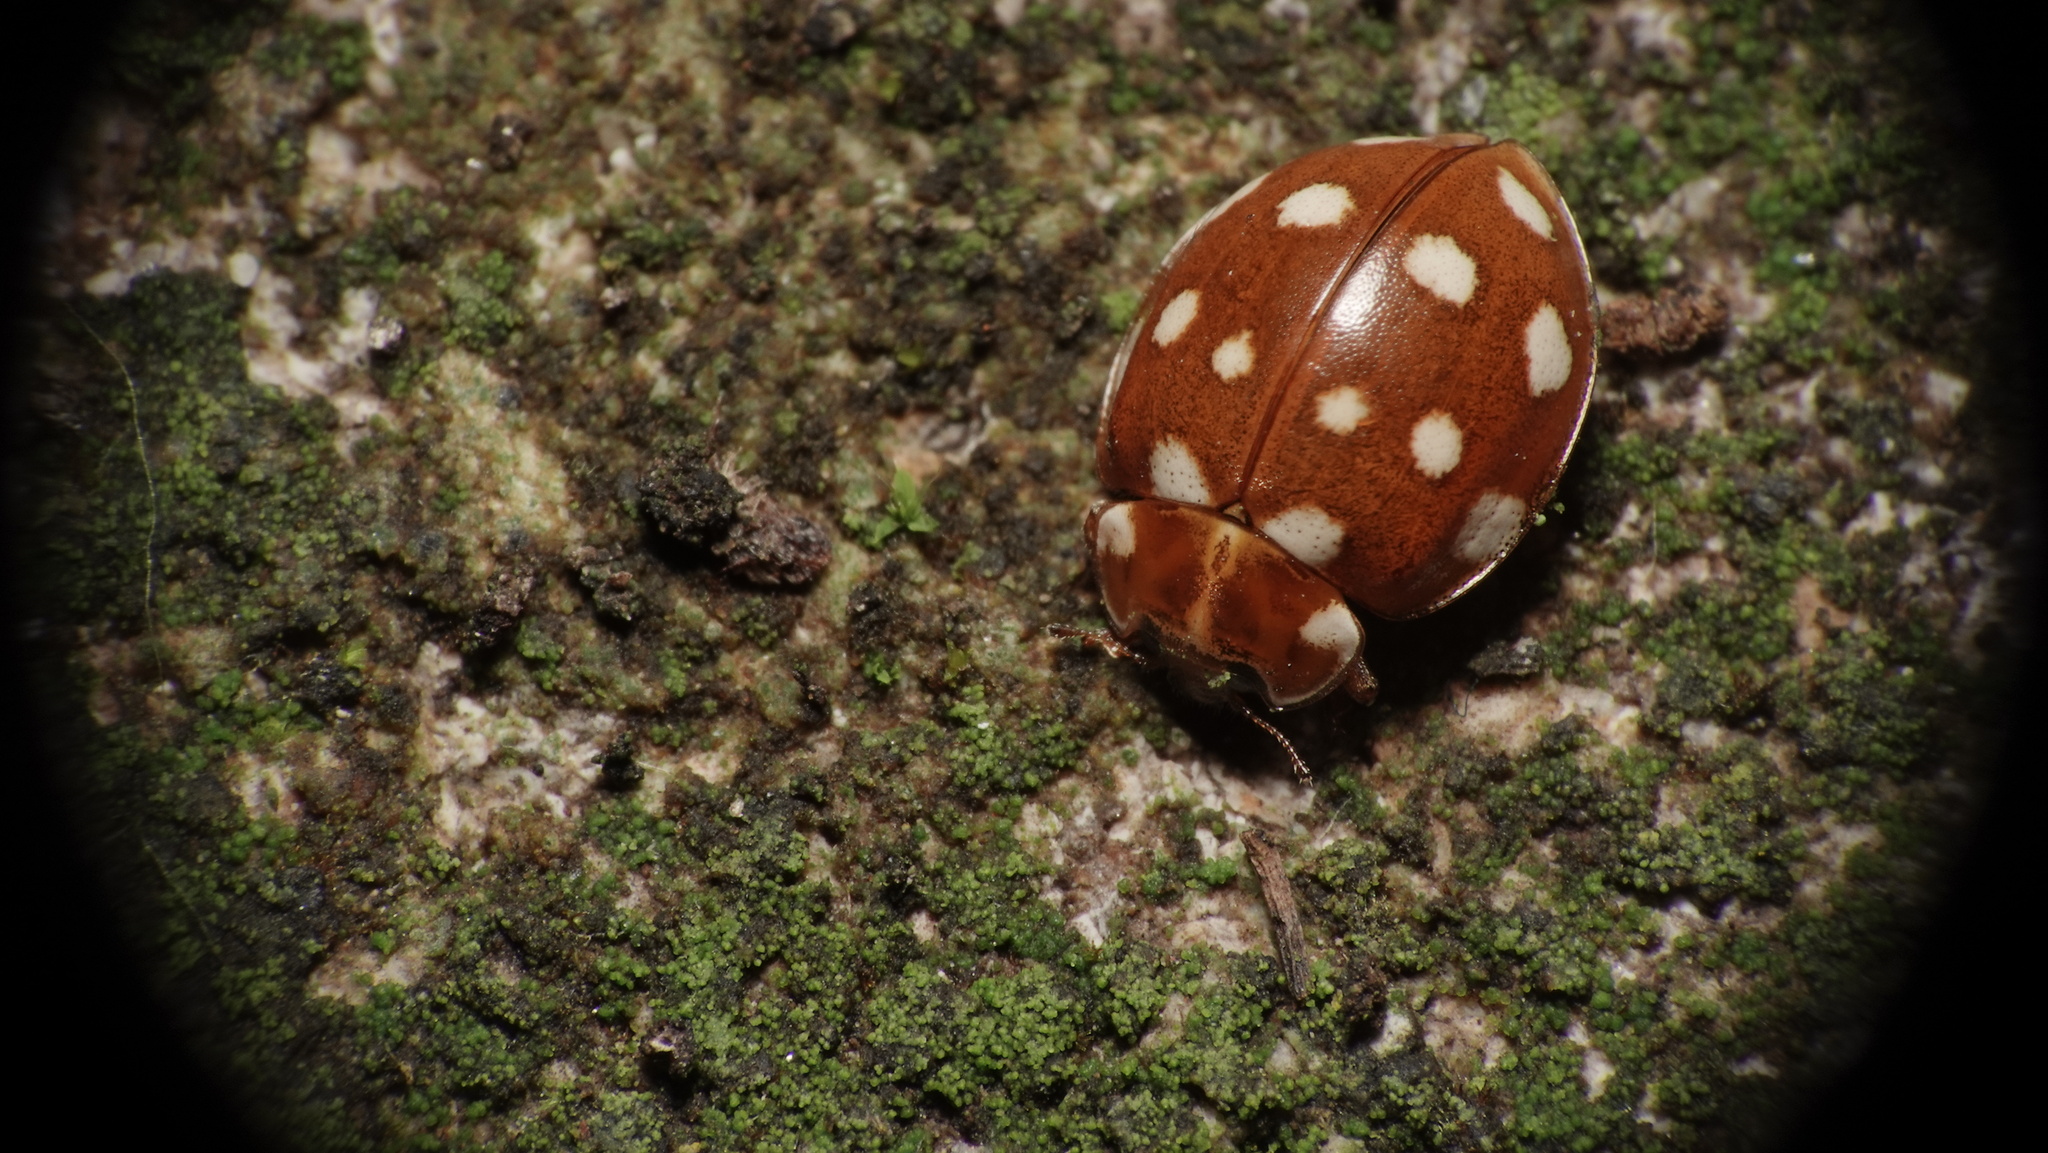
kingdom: Animalia
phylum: Arthropoda
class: Insecta
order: Coleoptera
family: Coccinellidae
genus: Calvia
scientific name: Calvia quatuordecimguttata
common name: Cream-spot ladybird
